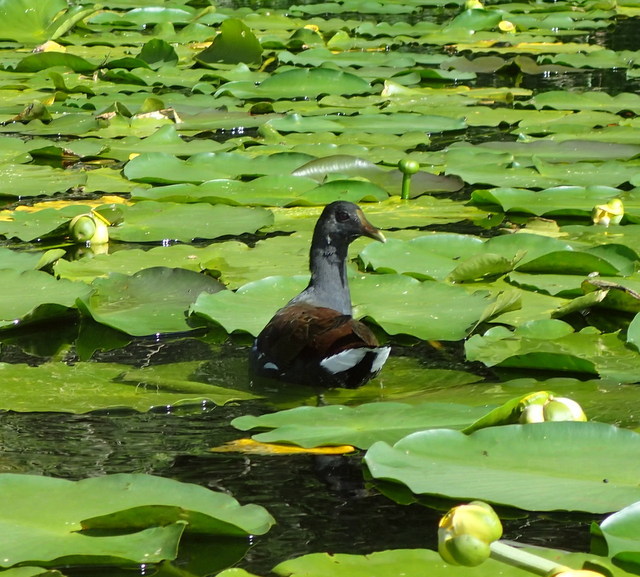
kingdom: Animalia
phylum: Chordata
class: Aves
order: Gruiformes
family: Rallidae
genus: Gallinula
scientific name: Gallinula chloropus
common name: Common moorhen
